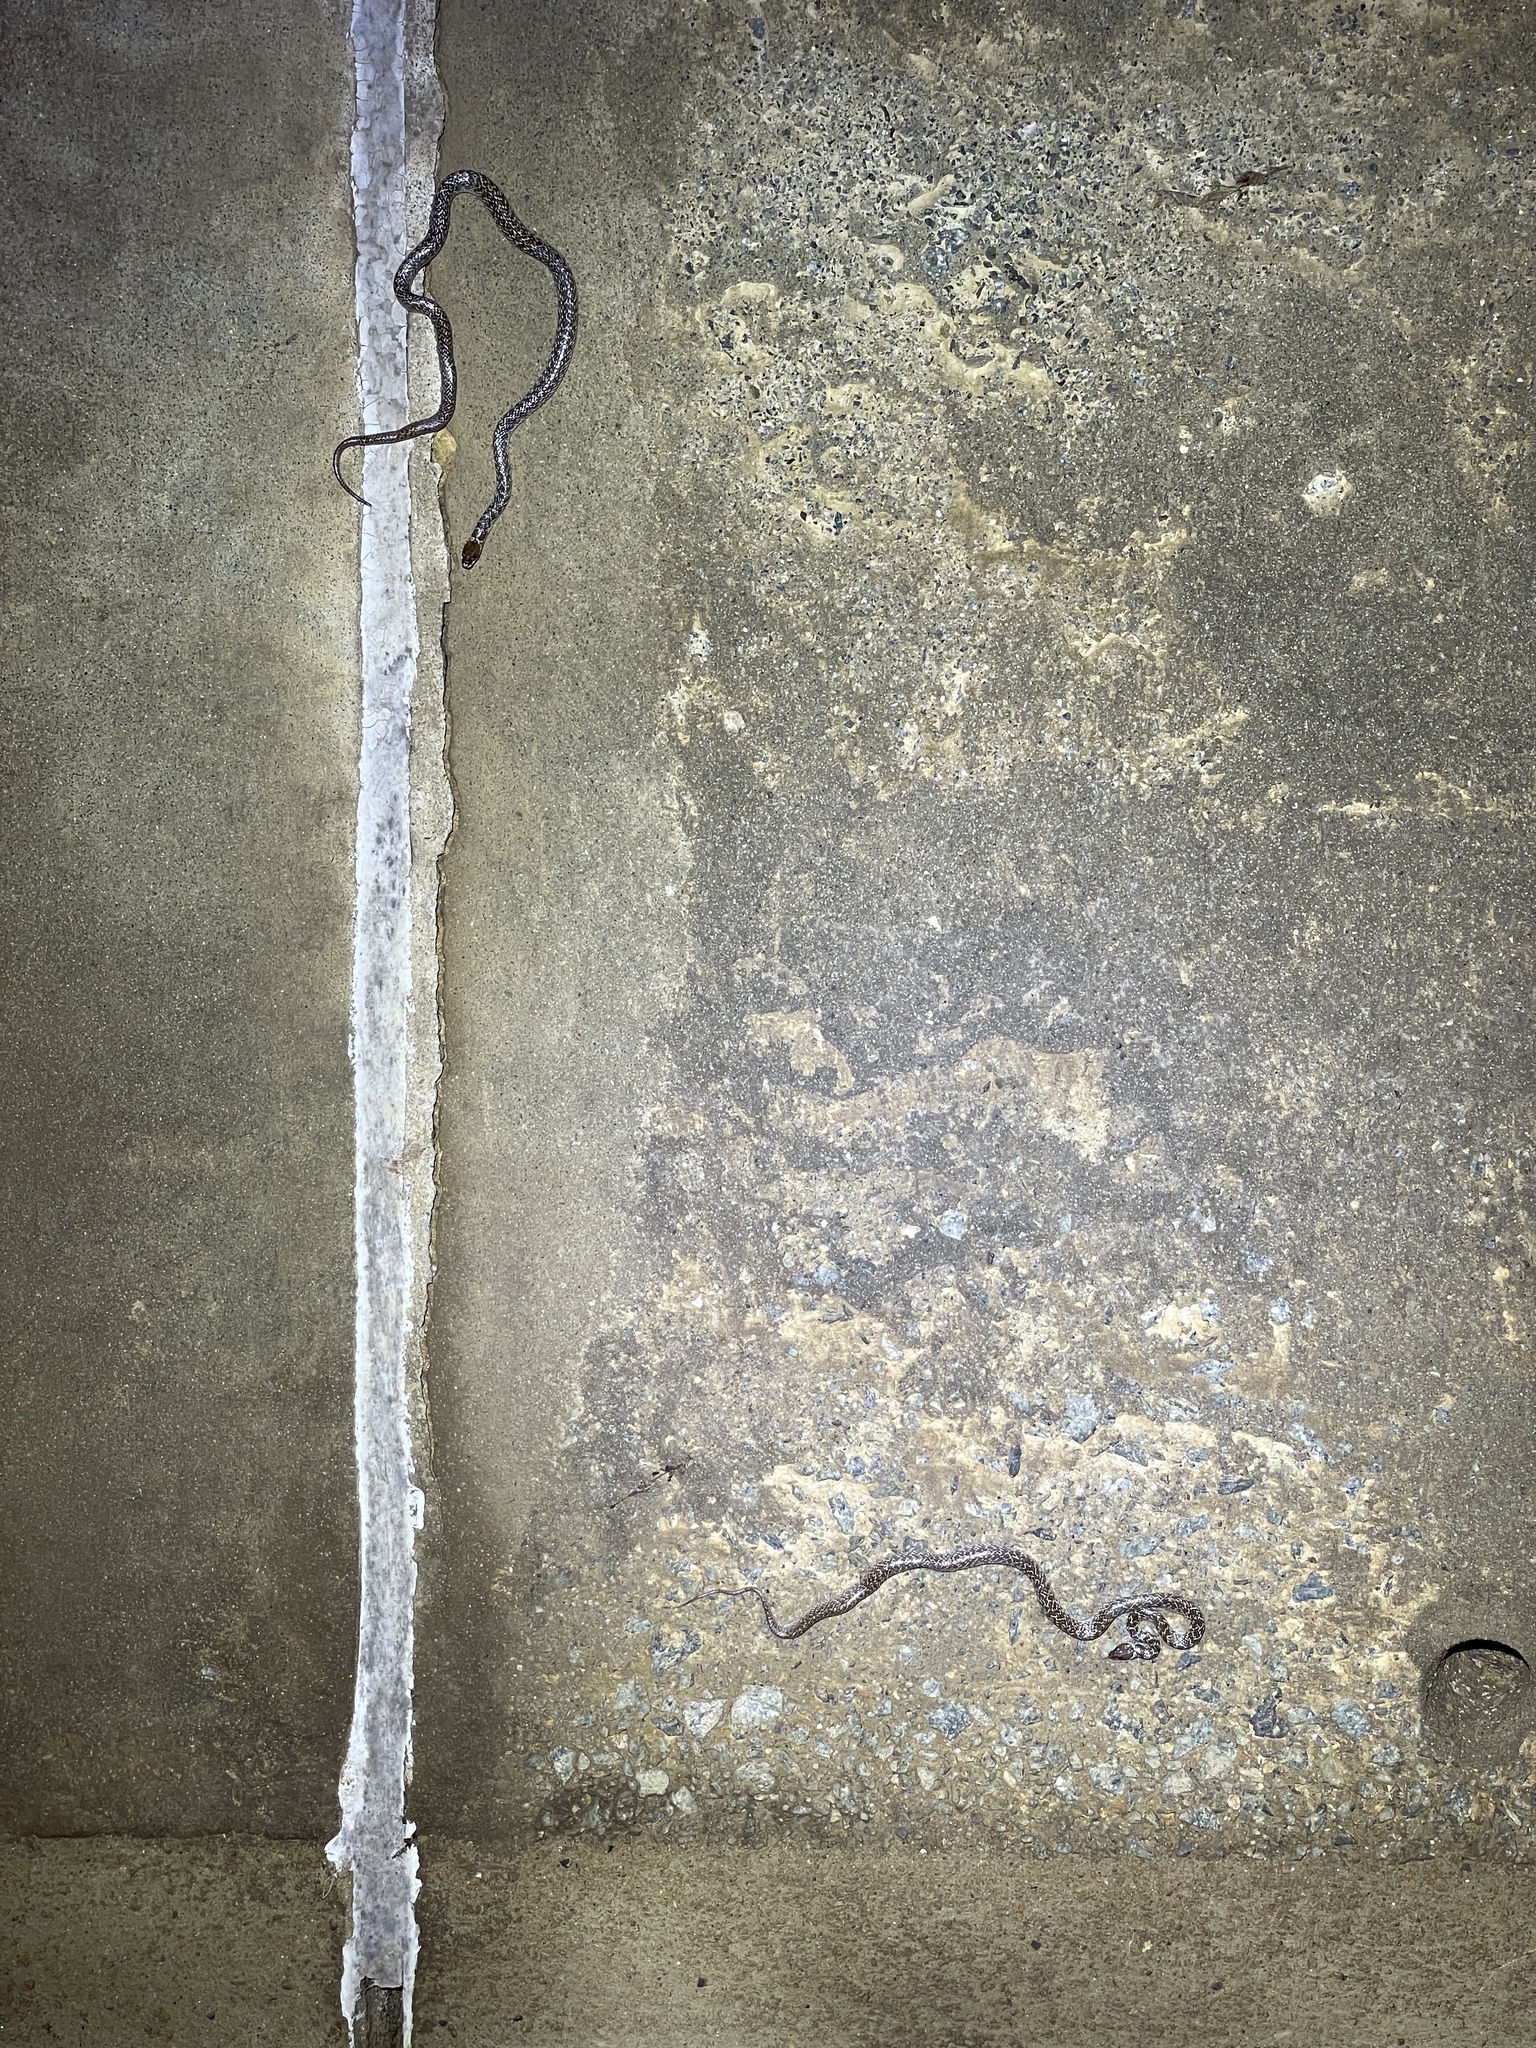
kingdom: Animalia
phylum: Chordata
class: Squamata
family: Colubridae
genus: Lycodon
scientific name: Lycodon capucinus
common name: Common wold snake/house snake
